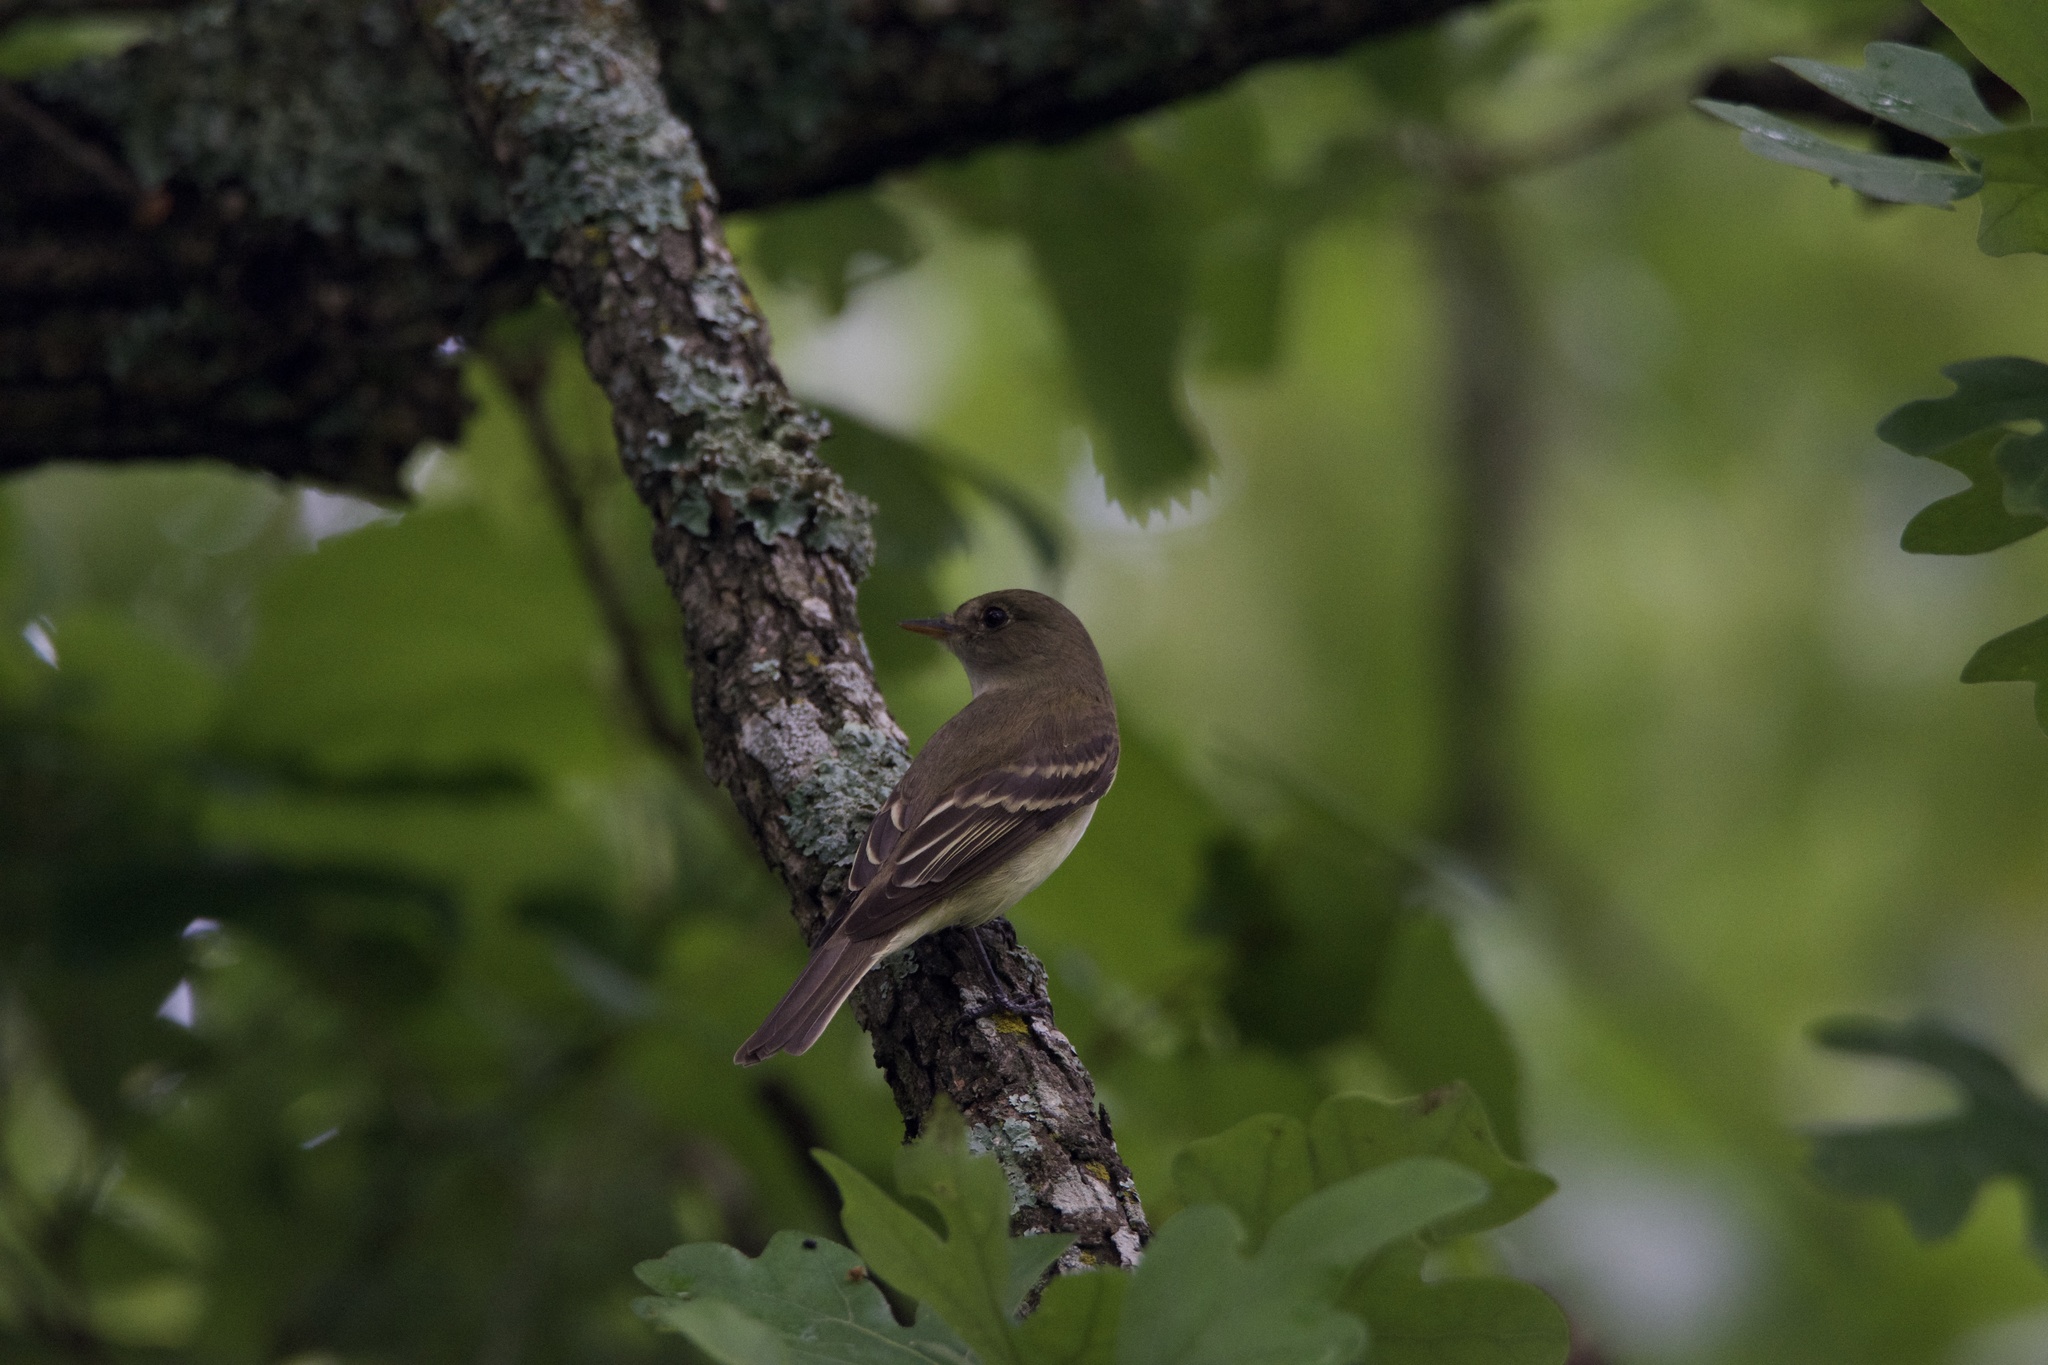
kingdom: Animalia
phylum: Chordata
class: Aves
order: Passeriformes
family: Tyrannidae
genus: Empidonax
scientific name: Empidonax alnorum
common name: Alder flycatcher
